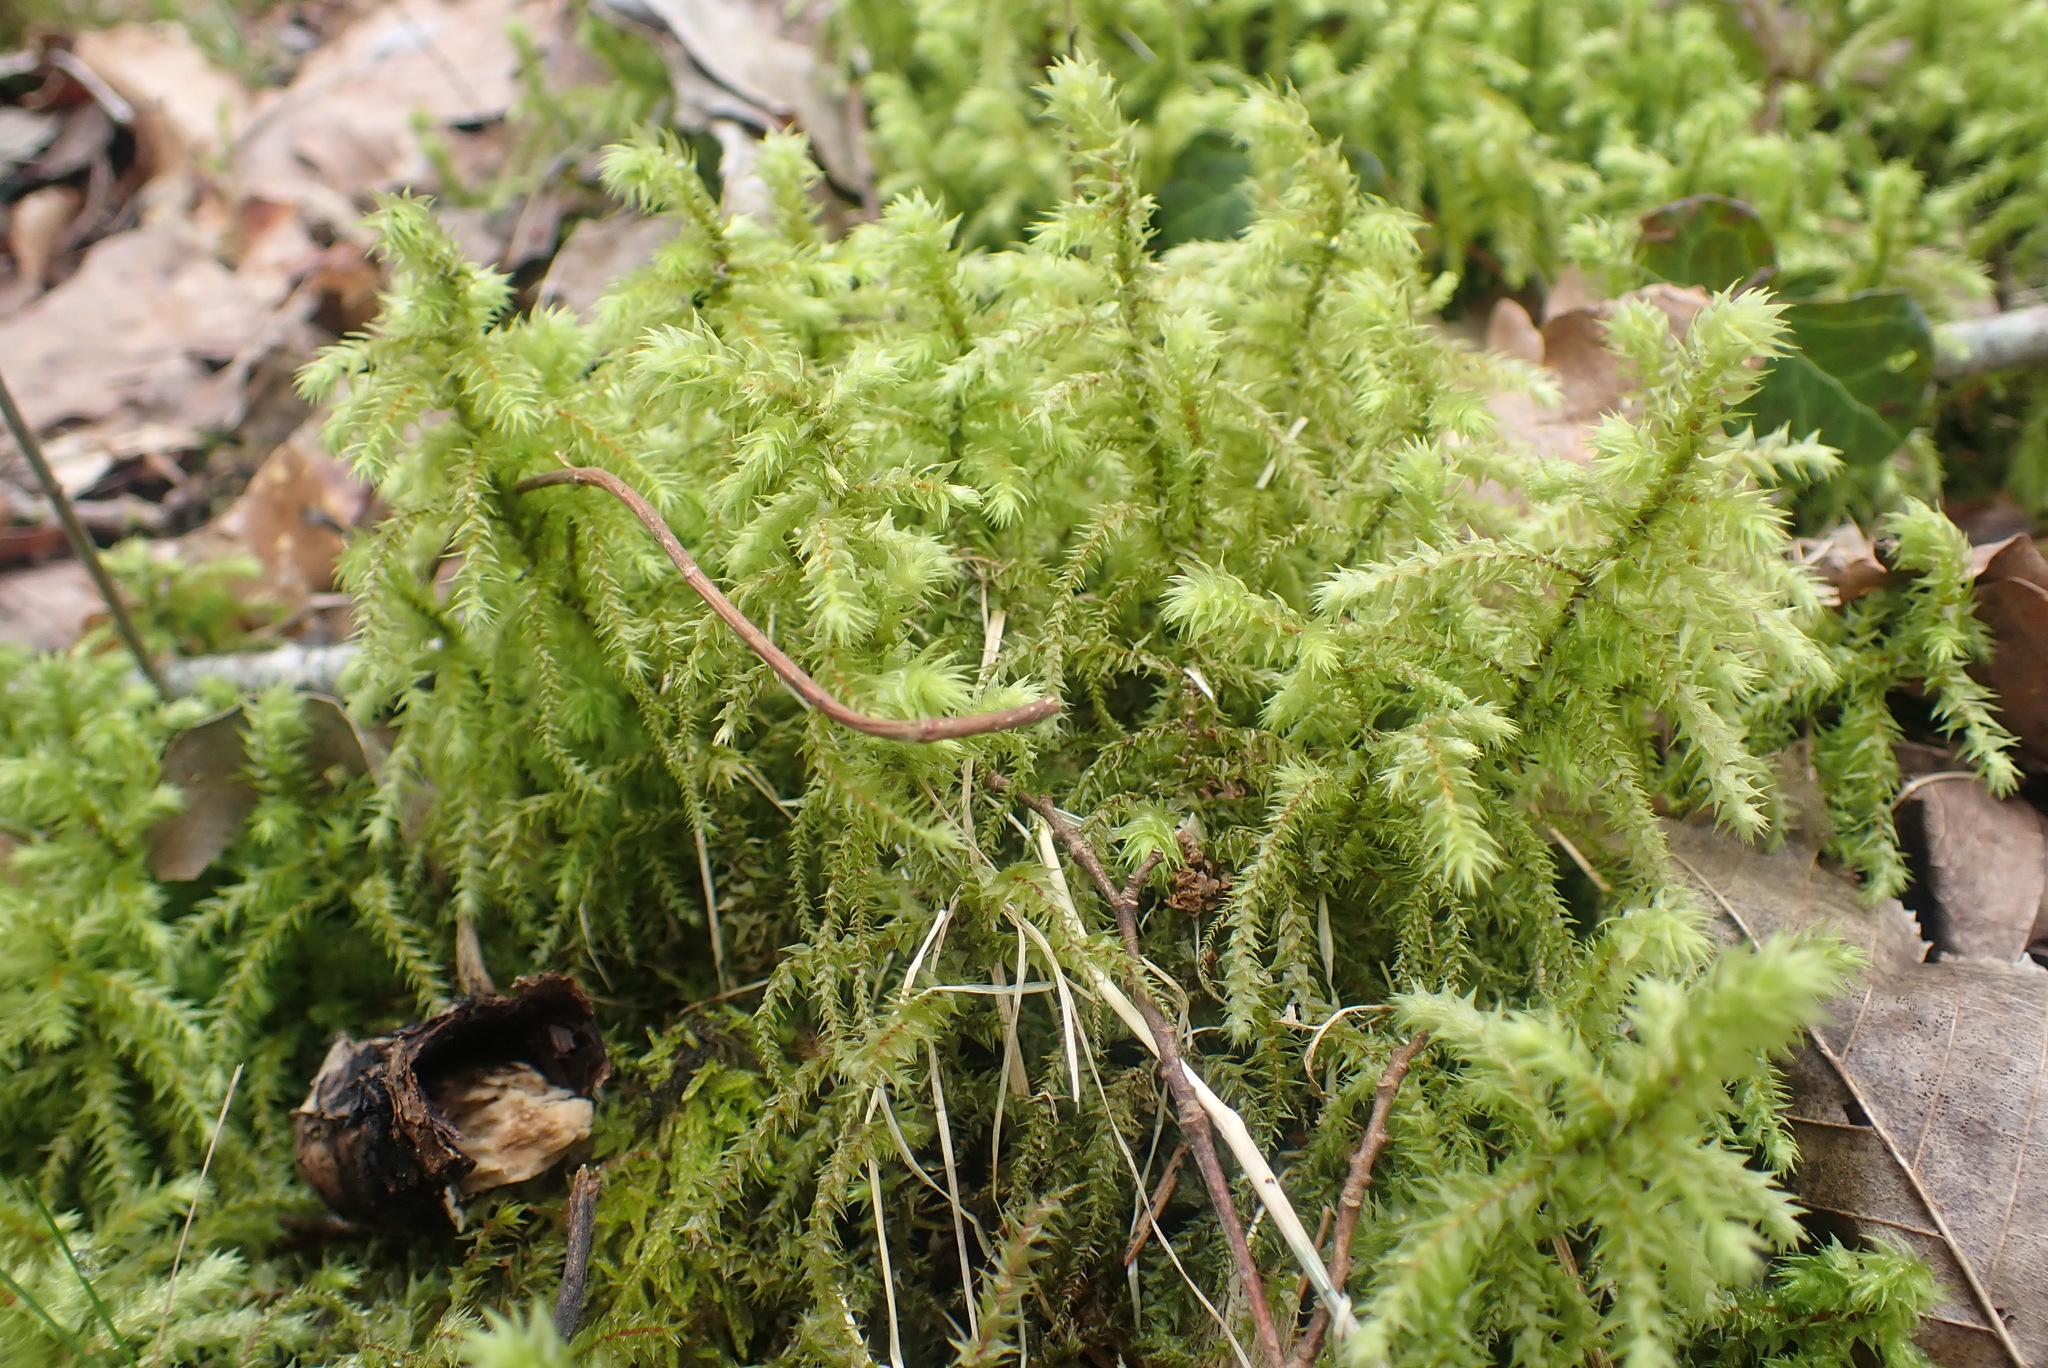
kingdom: Plantae
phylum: Bryophyta
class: Bryopsida
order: Hypnales
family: Hylocomiaceae
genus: Hylocomiadelphus
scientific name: Hylocomiadelphus triquetrus
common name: Rough goose neck moss
